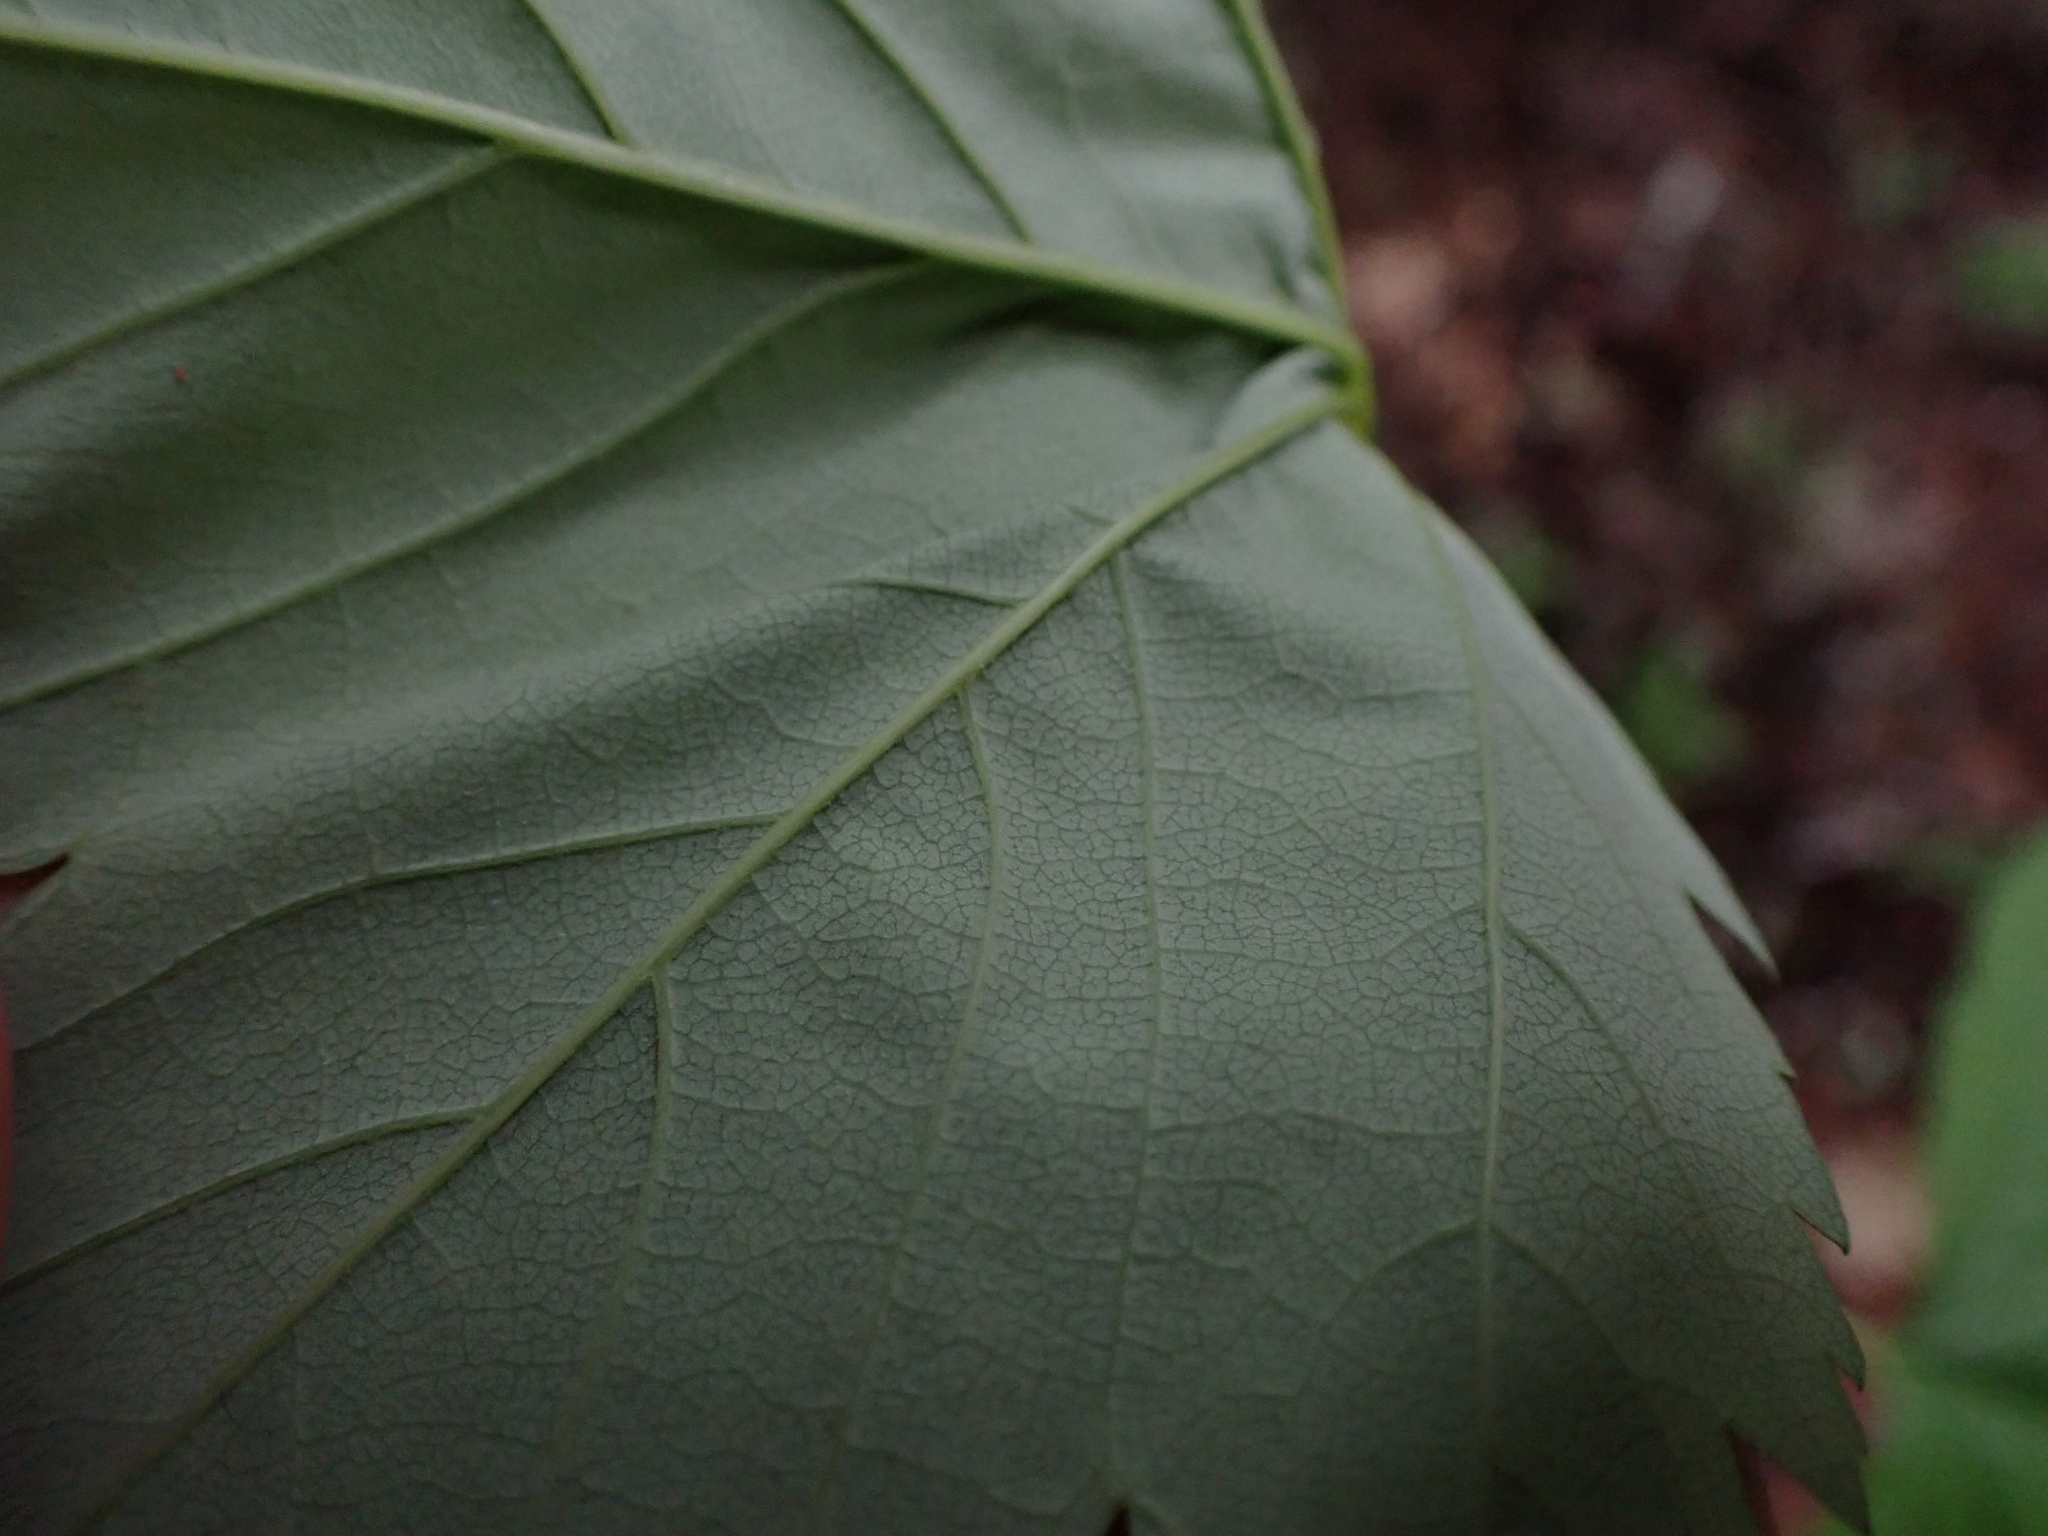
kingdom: Plantae
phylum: Tracheophyta
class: Magnoliopsida
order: Sapindales
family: Sapindaceae
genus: Acer
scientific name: Acer glabrum
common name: Rocky mountain maple
